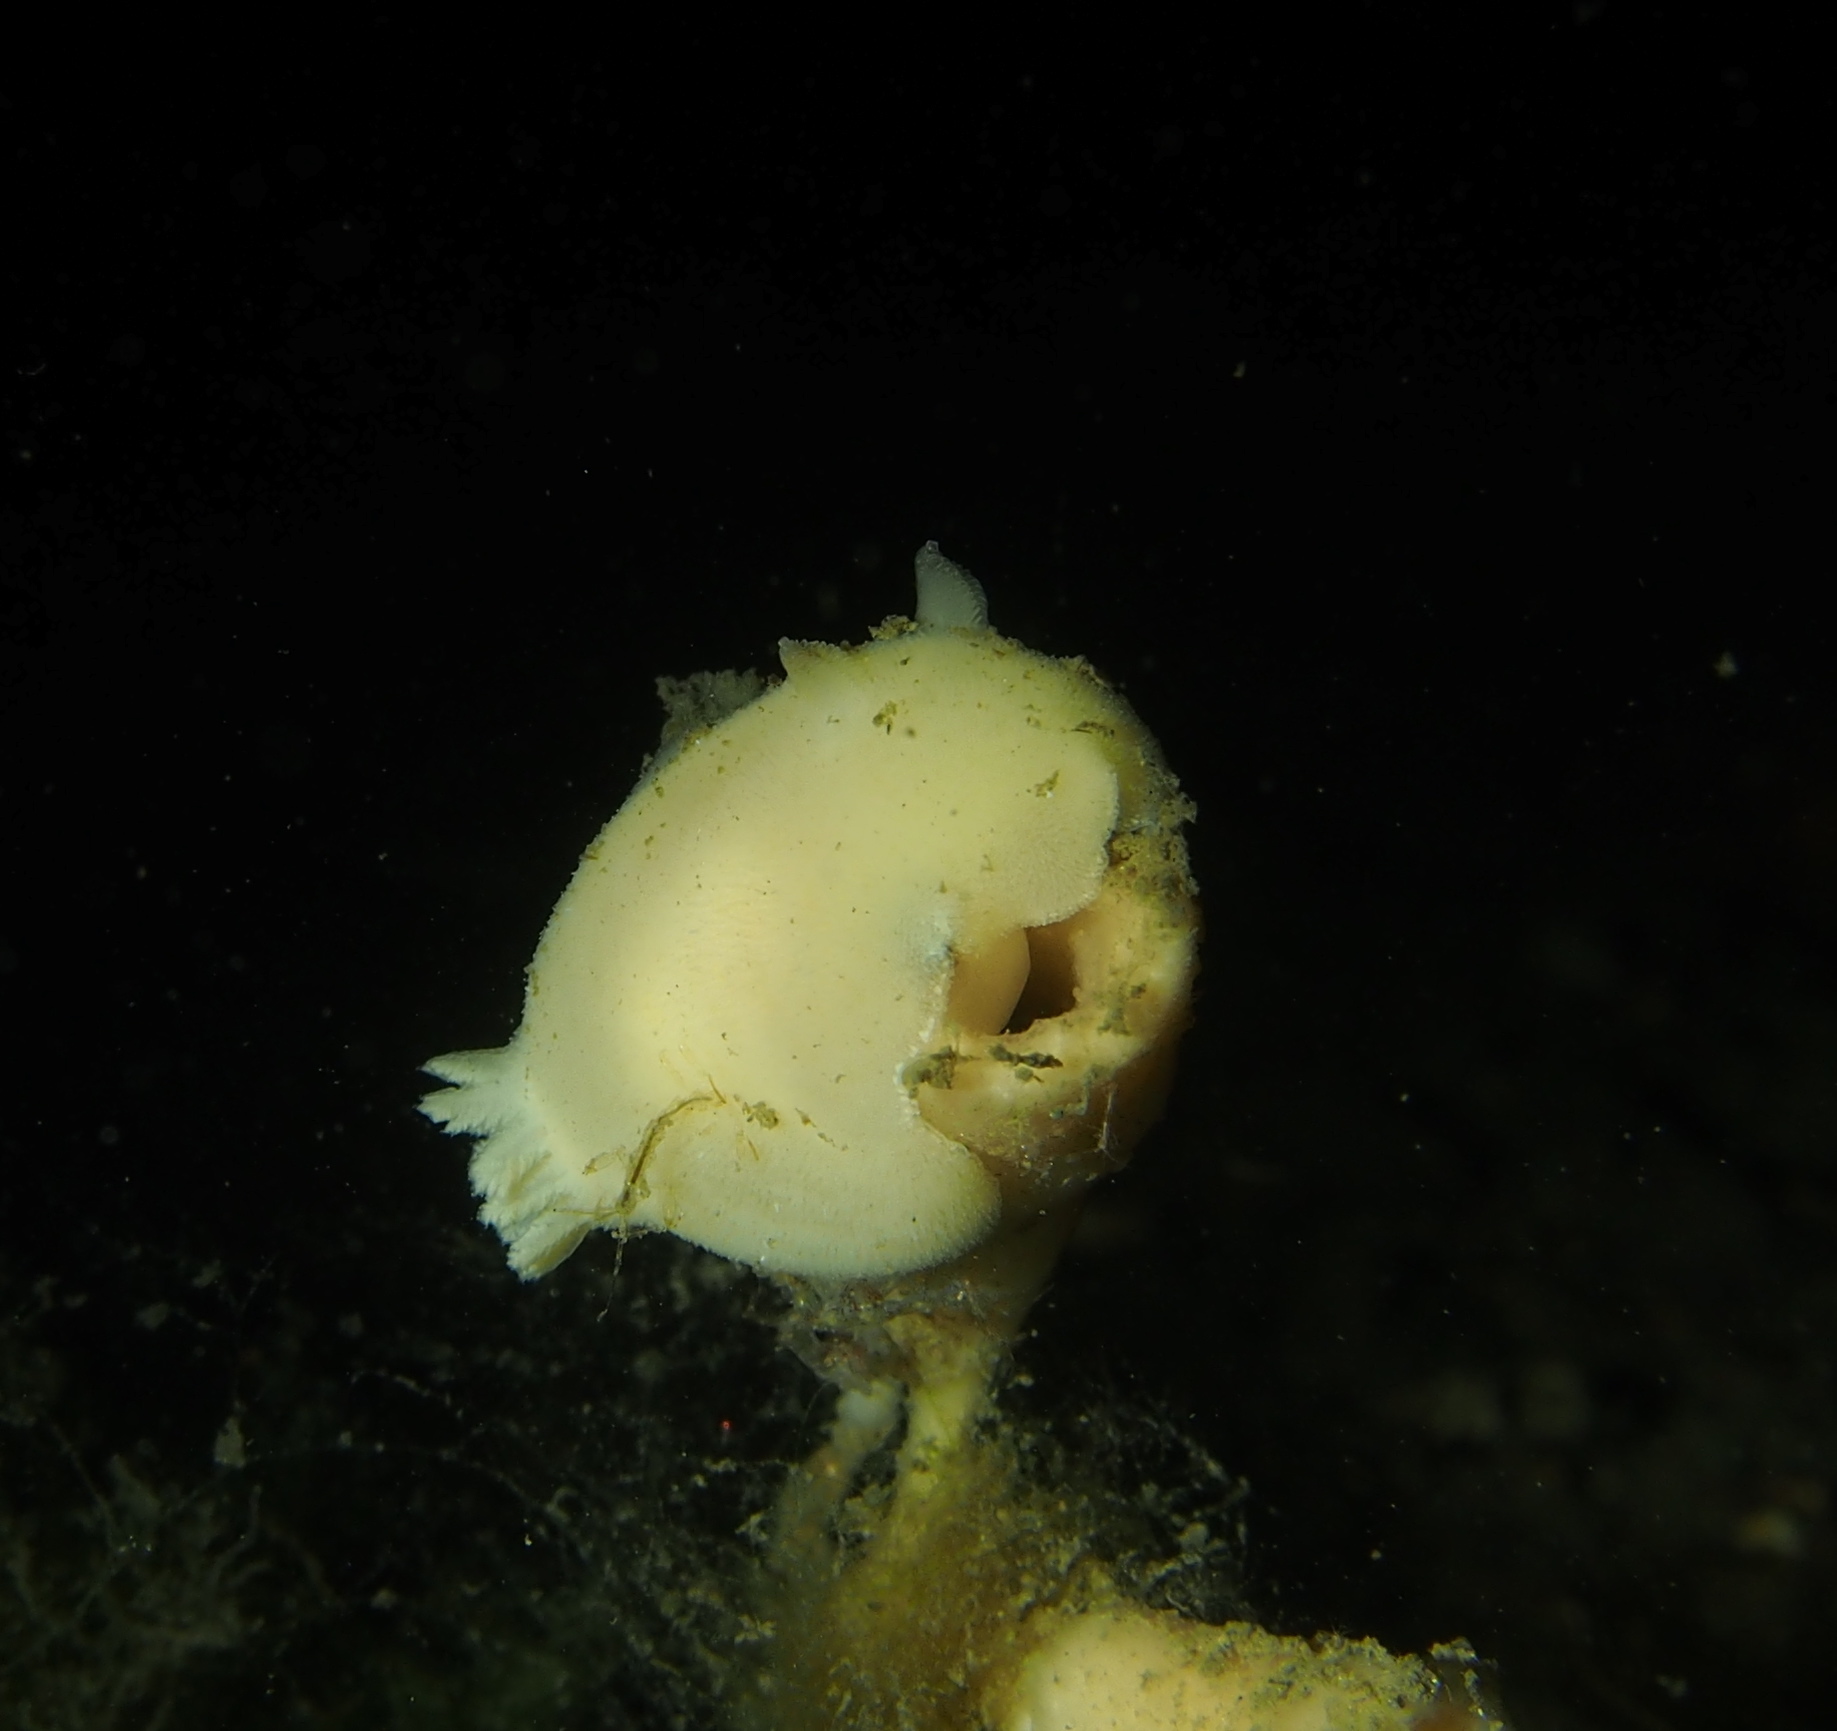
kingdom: Animalia
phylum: Mollusca
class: Gastropoda
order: Nudibranchia
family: Discodorididae
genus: Jorunna
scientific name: Jorunna tomentosa
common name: Grey sea slug
